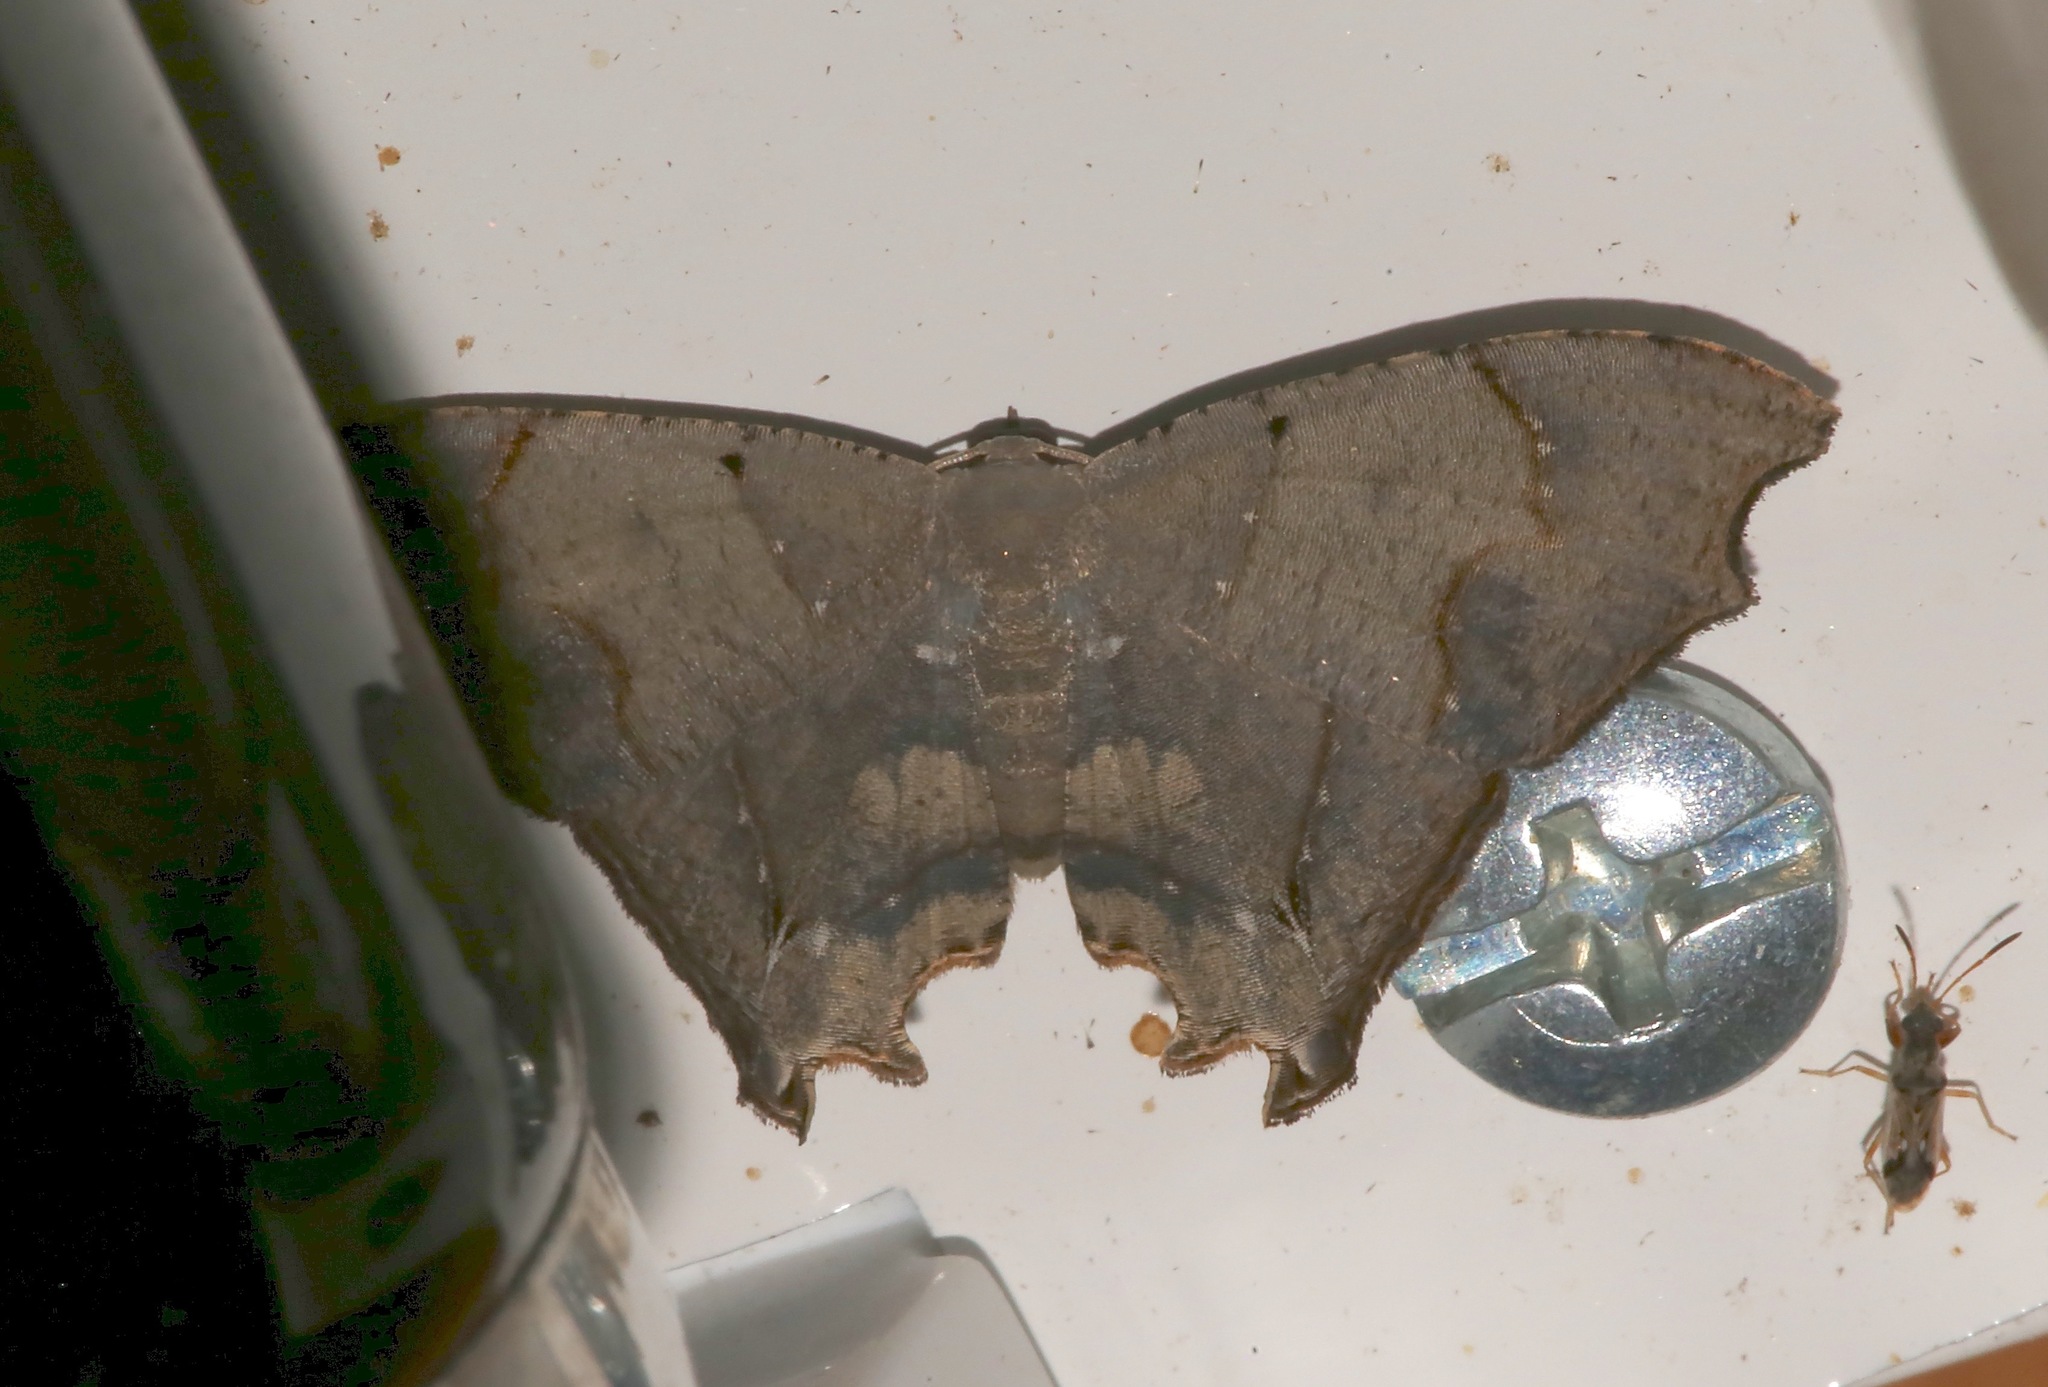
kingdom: Animalia
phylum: Arthropoda
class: Insecta
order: Lepidoptera
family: Uraniidae
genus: Trotorhombia
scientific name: Trotorhombia metachromata
